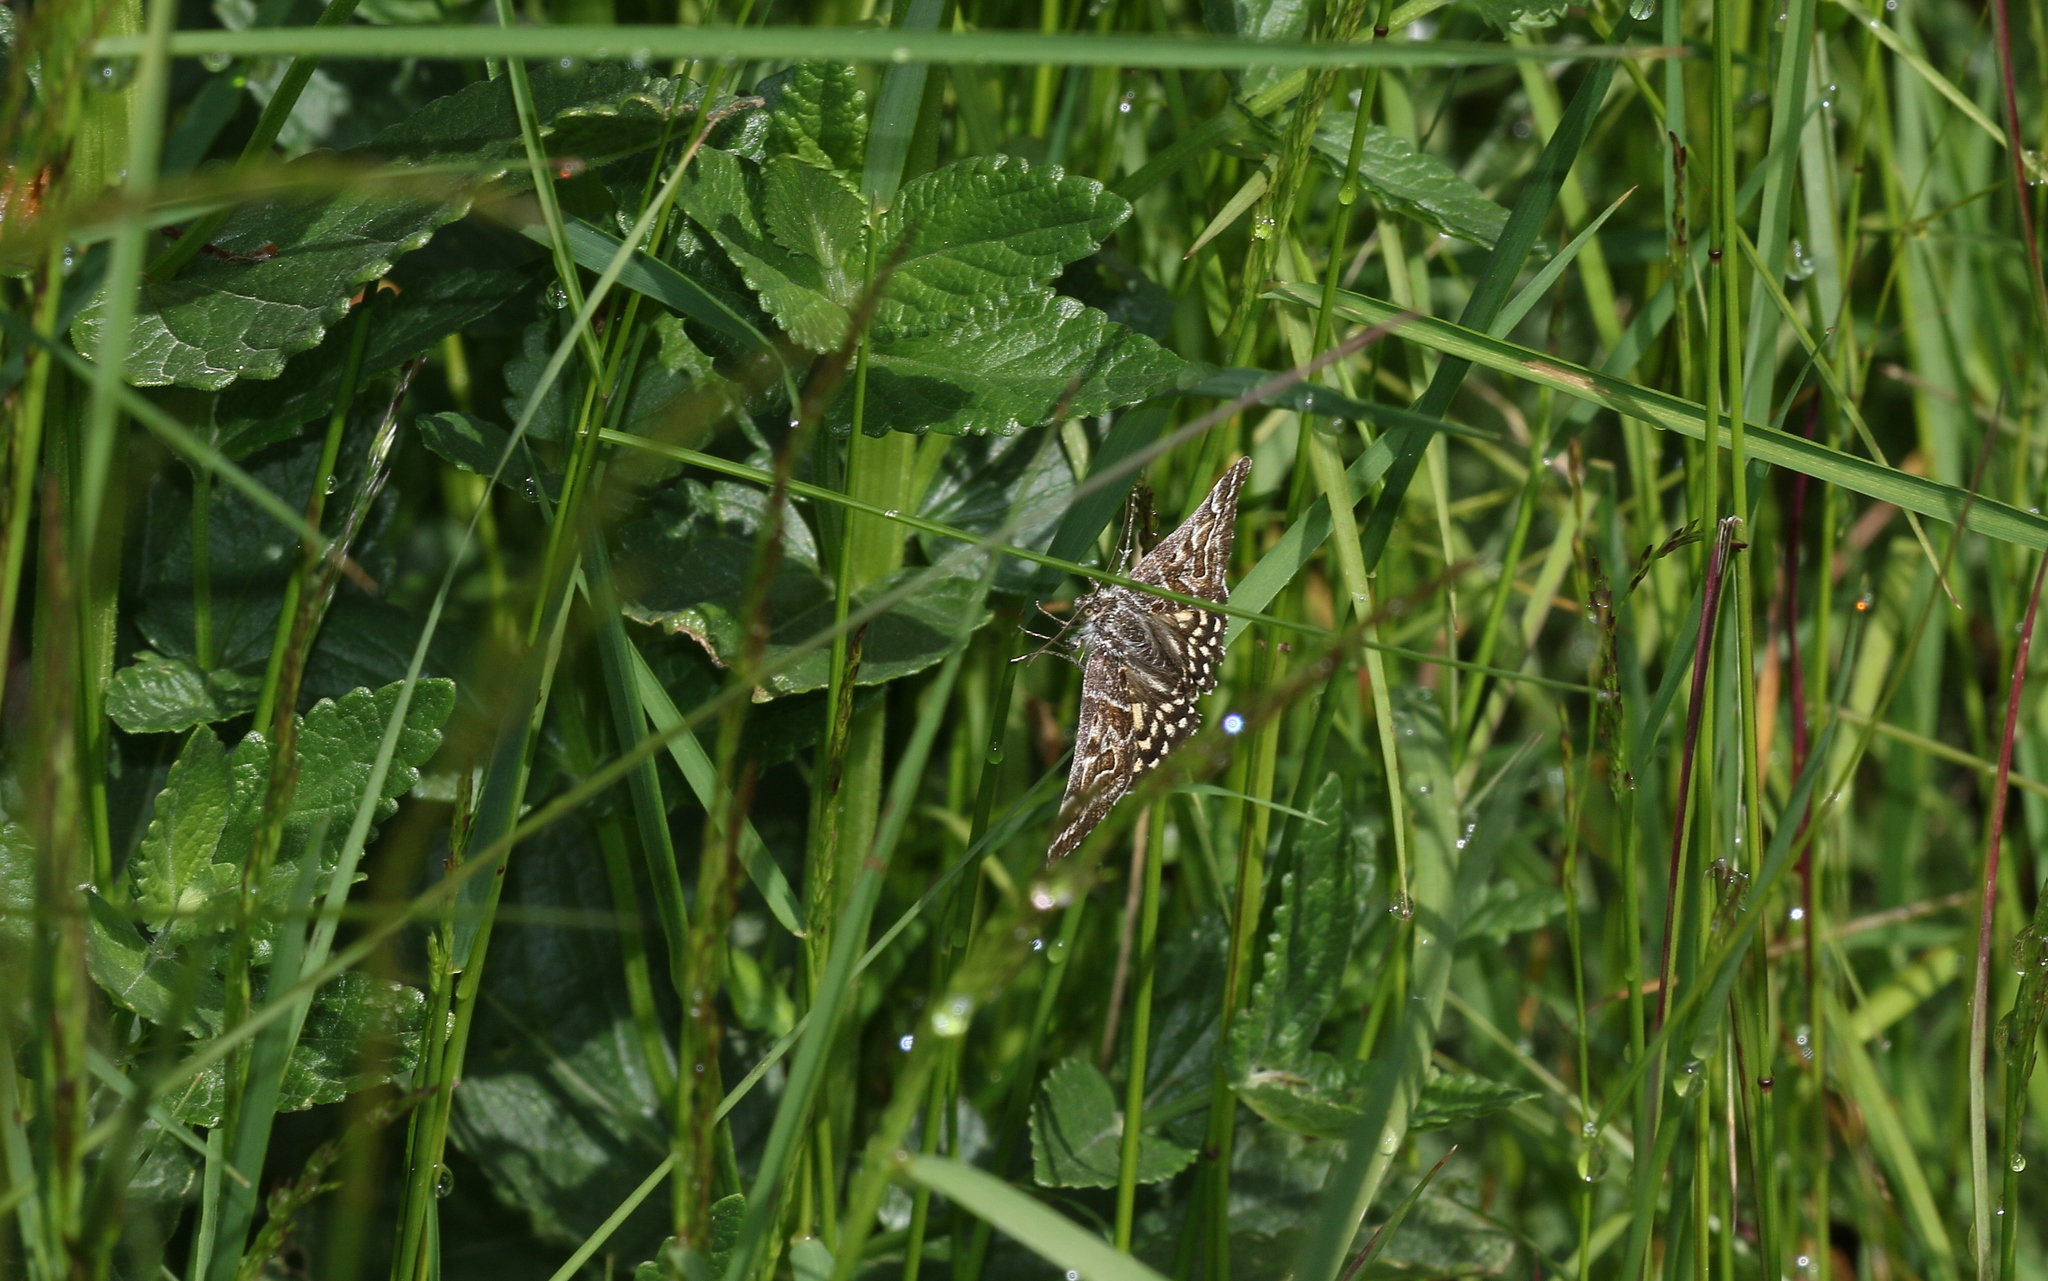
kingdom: Animalia
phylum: Arthropoda
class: Insecta
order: Lepidoptera
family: Erebidae
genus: Callistege
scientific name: Callistege mi
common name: Mother shipton
